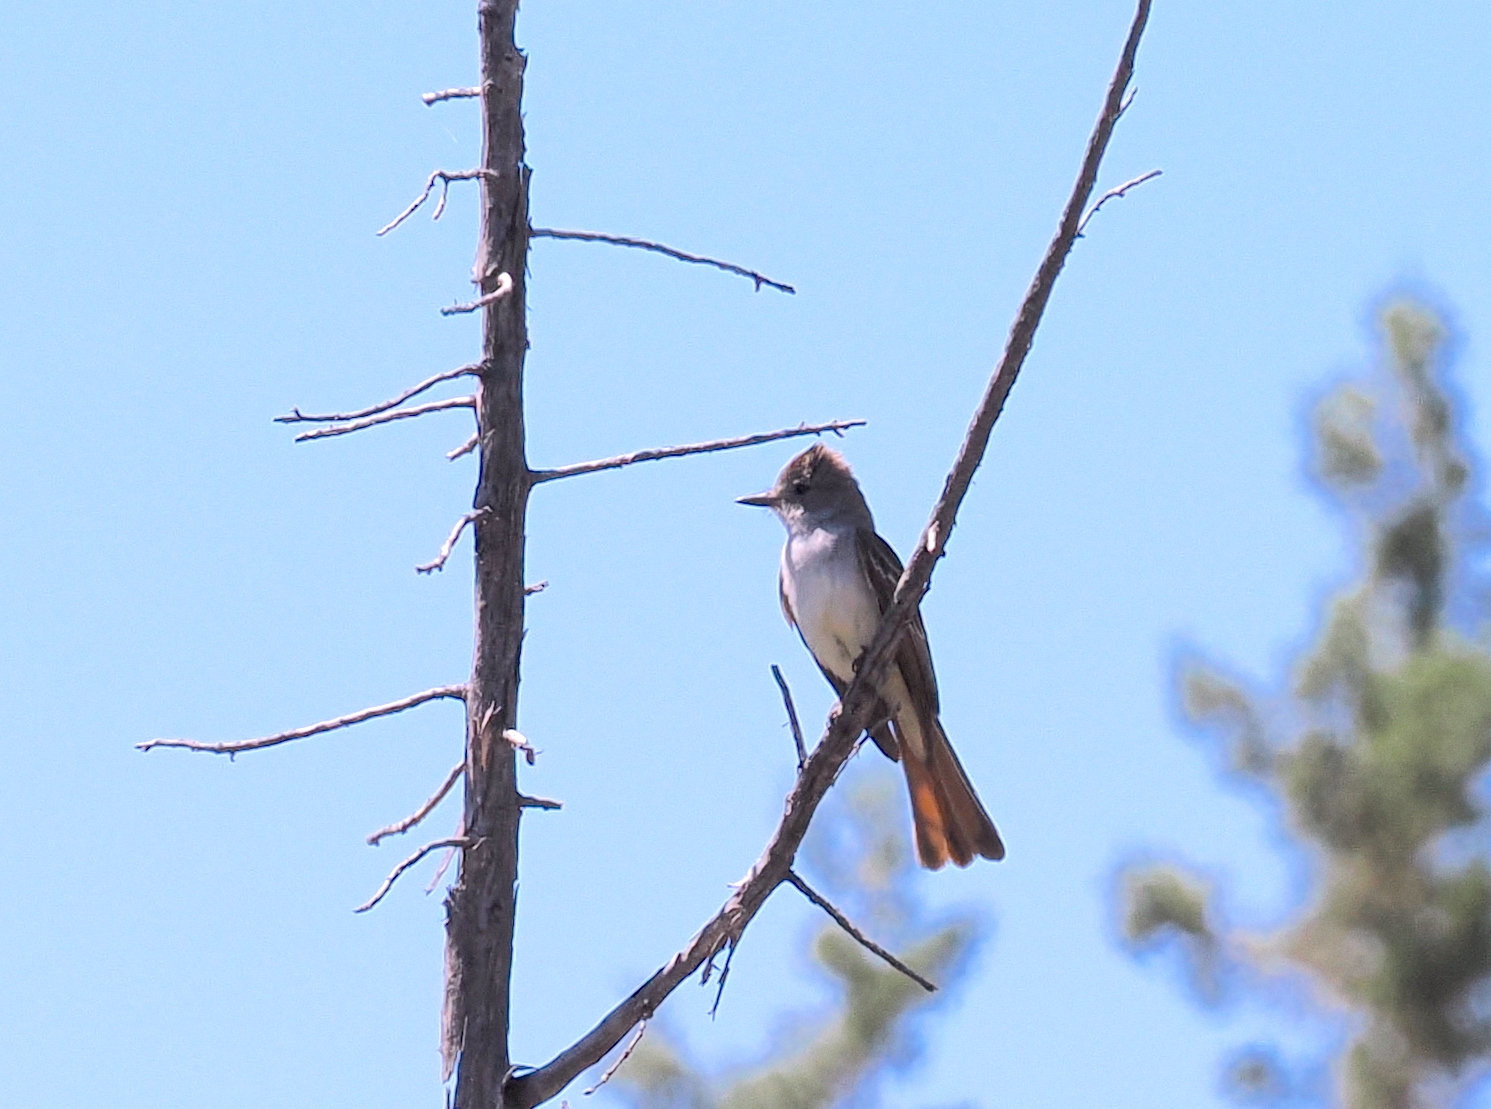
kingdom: Animalia
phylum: Chordata
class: Aves
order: Passeriformes
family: Tyrannidae
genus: Myiarchus
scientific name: Myiarchus cinerascens
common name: Ash-throated flycatcher
